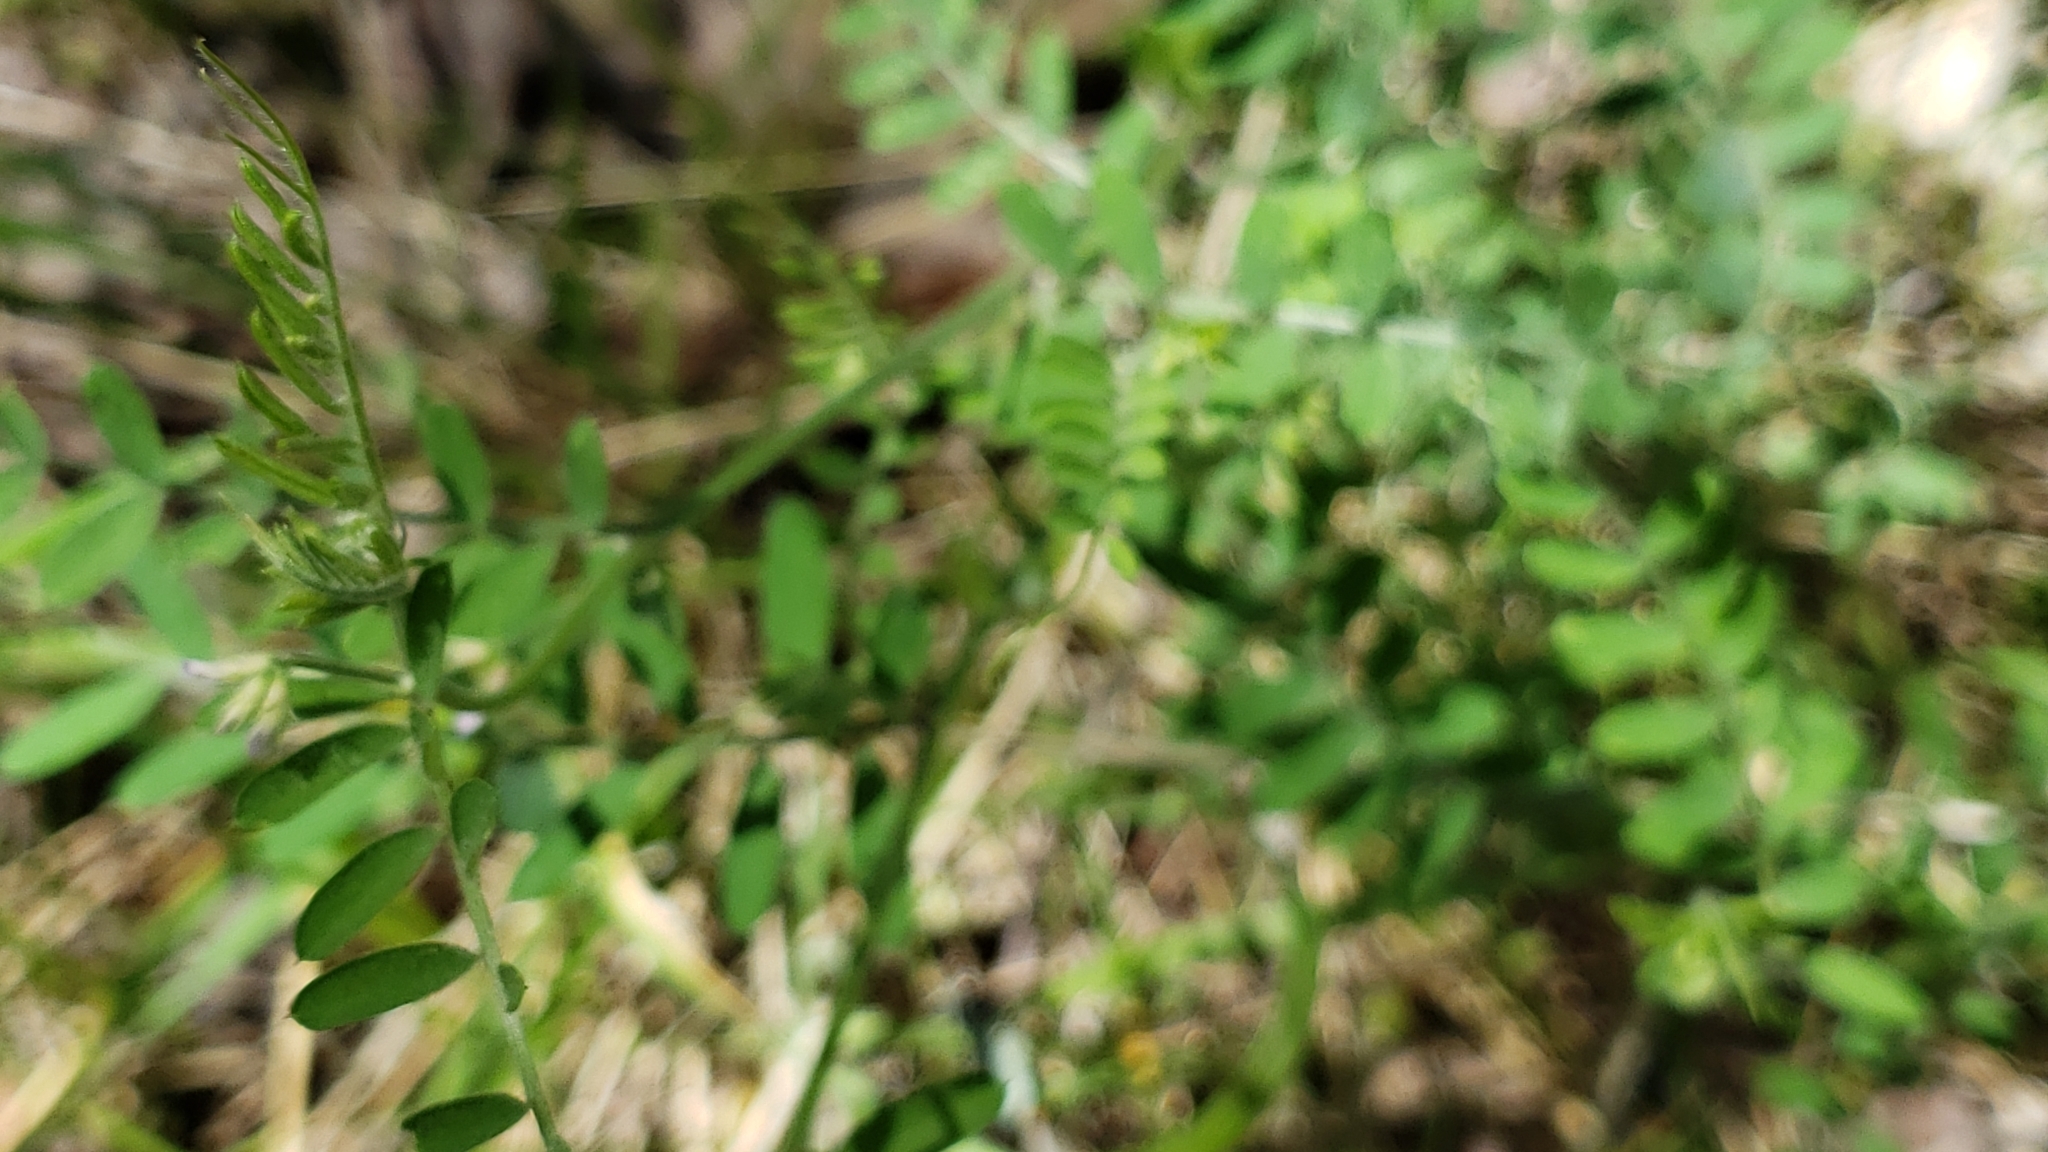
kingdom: Plantae
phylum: Tracheophyta
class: Magnoliopsida
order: Fabales
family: Fabaceae
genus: Vicia
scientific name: Vicia ludoviciana
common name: Louisiana vetch
